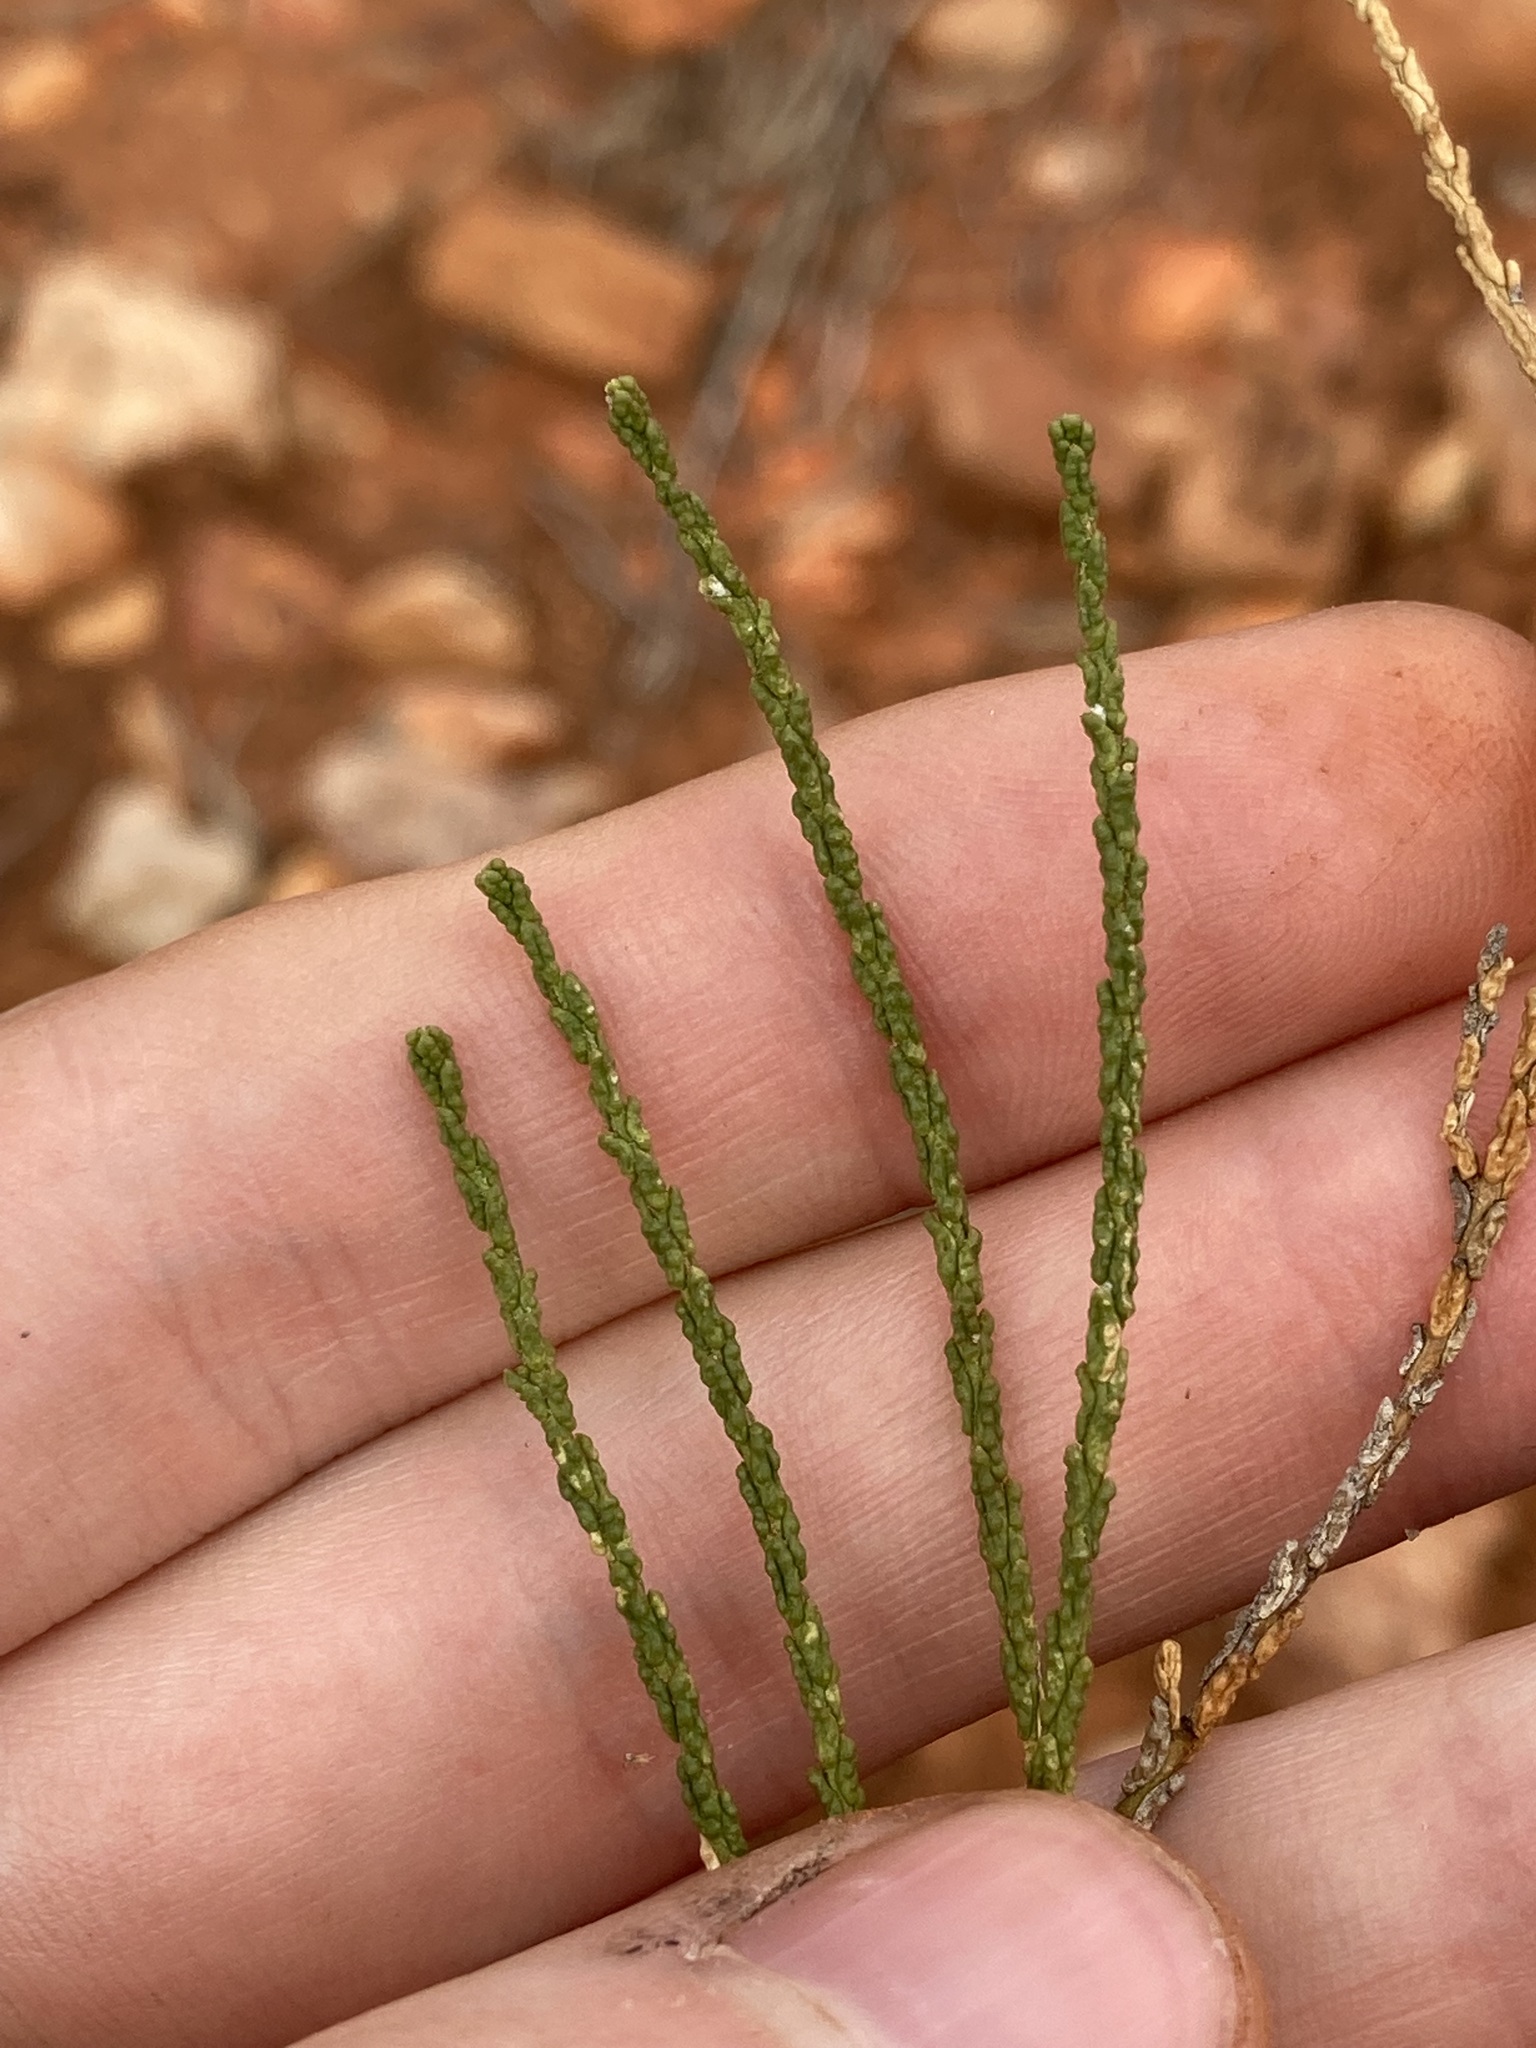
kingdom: Plantae
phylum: Tracheophyta
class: Magnoliopsida
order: Lamiales
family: Scrophulariaceae
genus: Eremophila
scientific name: Eremophila homoplastica
